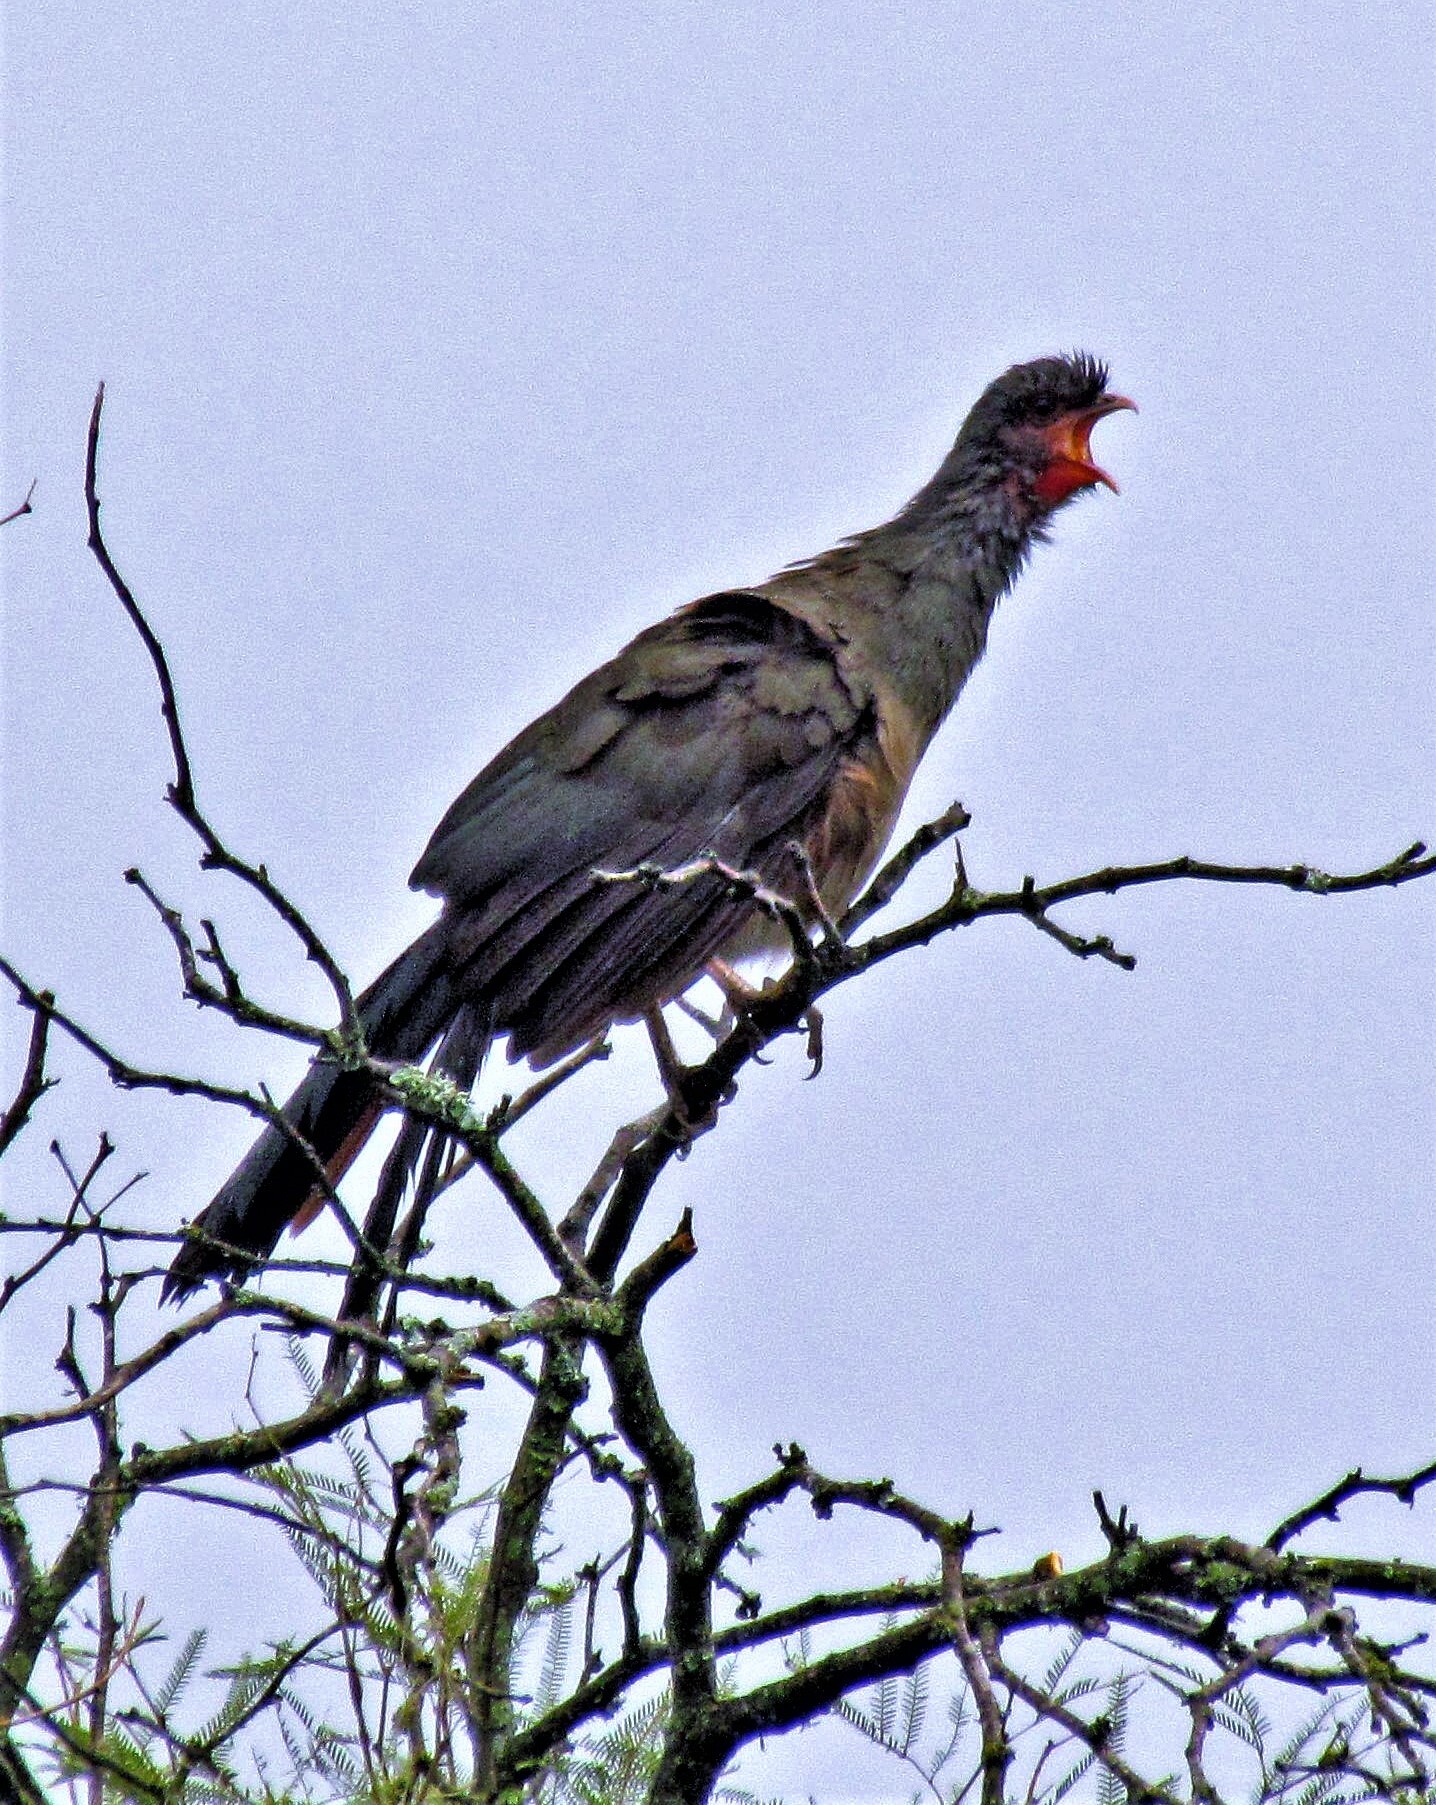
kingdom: Animalia
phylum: Chordata
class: Aves
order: Galliformes
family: Cracidae
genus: Ortalis
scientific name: Ortalis canicollis
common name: Chaco chachalaca
